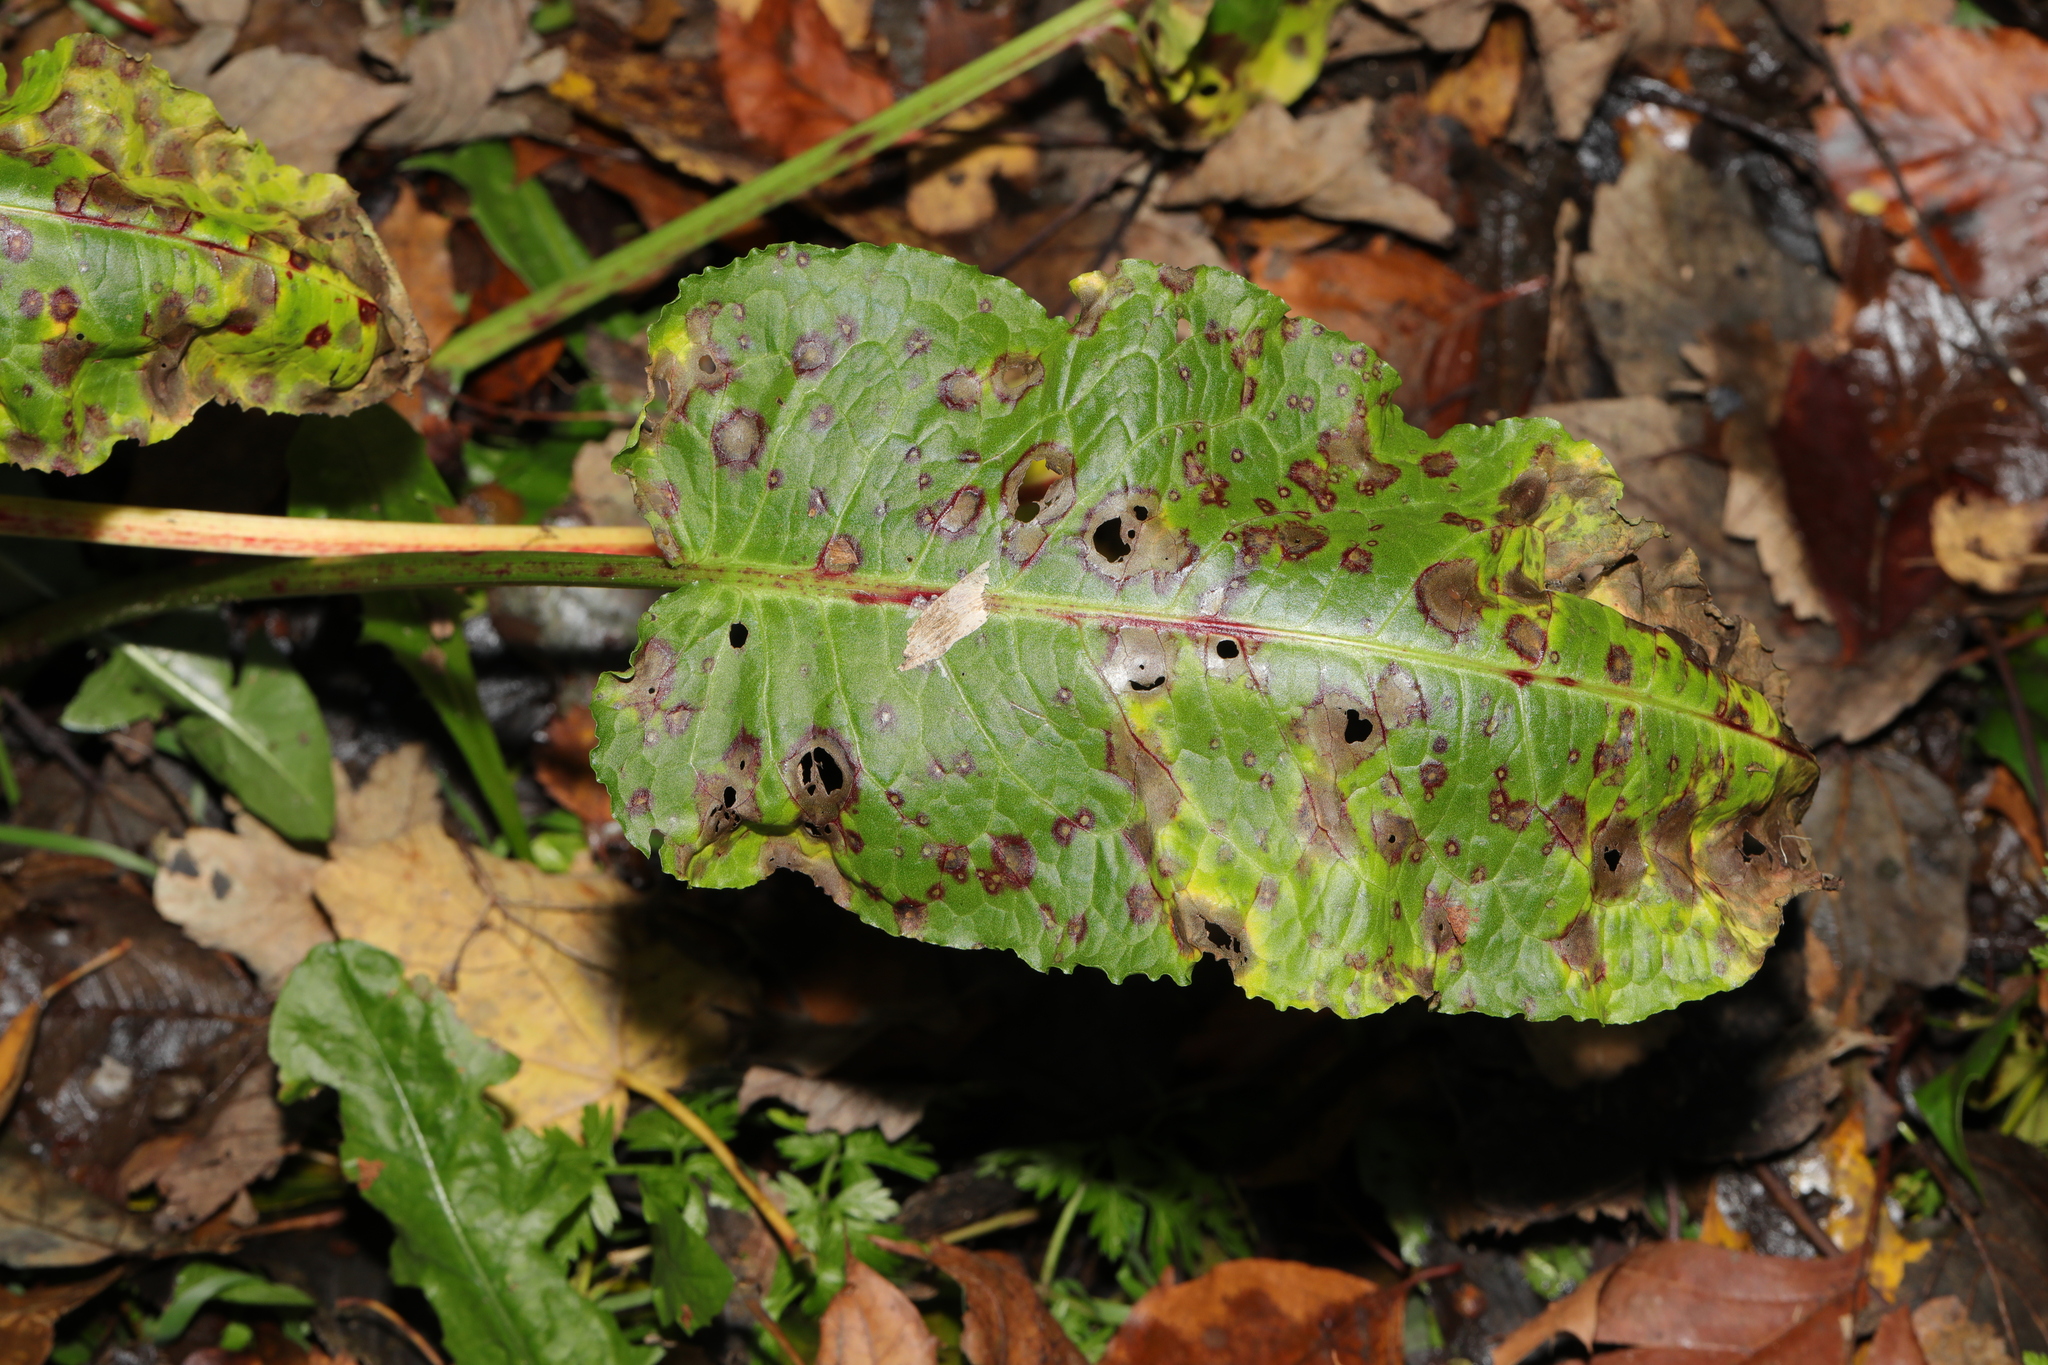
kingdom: Plantae
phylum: Tracheophyta
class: Magnoliopsida
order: Caryophyllales
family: Polygonaceae
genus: Rumex
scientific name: Rumex obtusifolius
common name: Bitter dock
